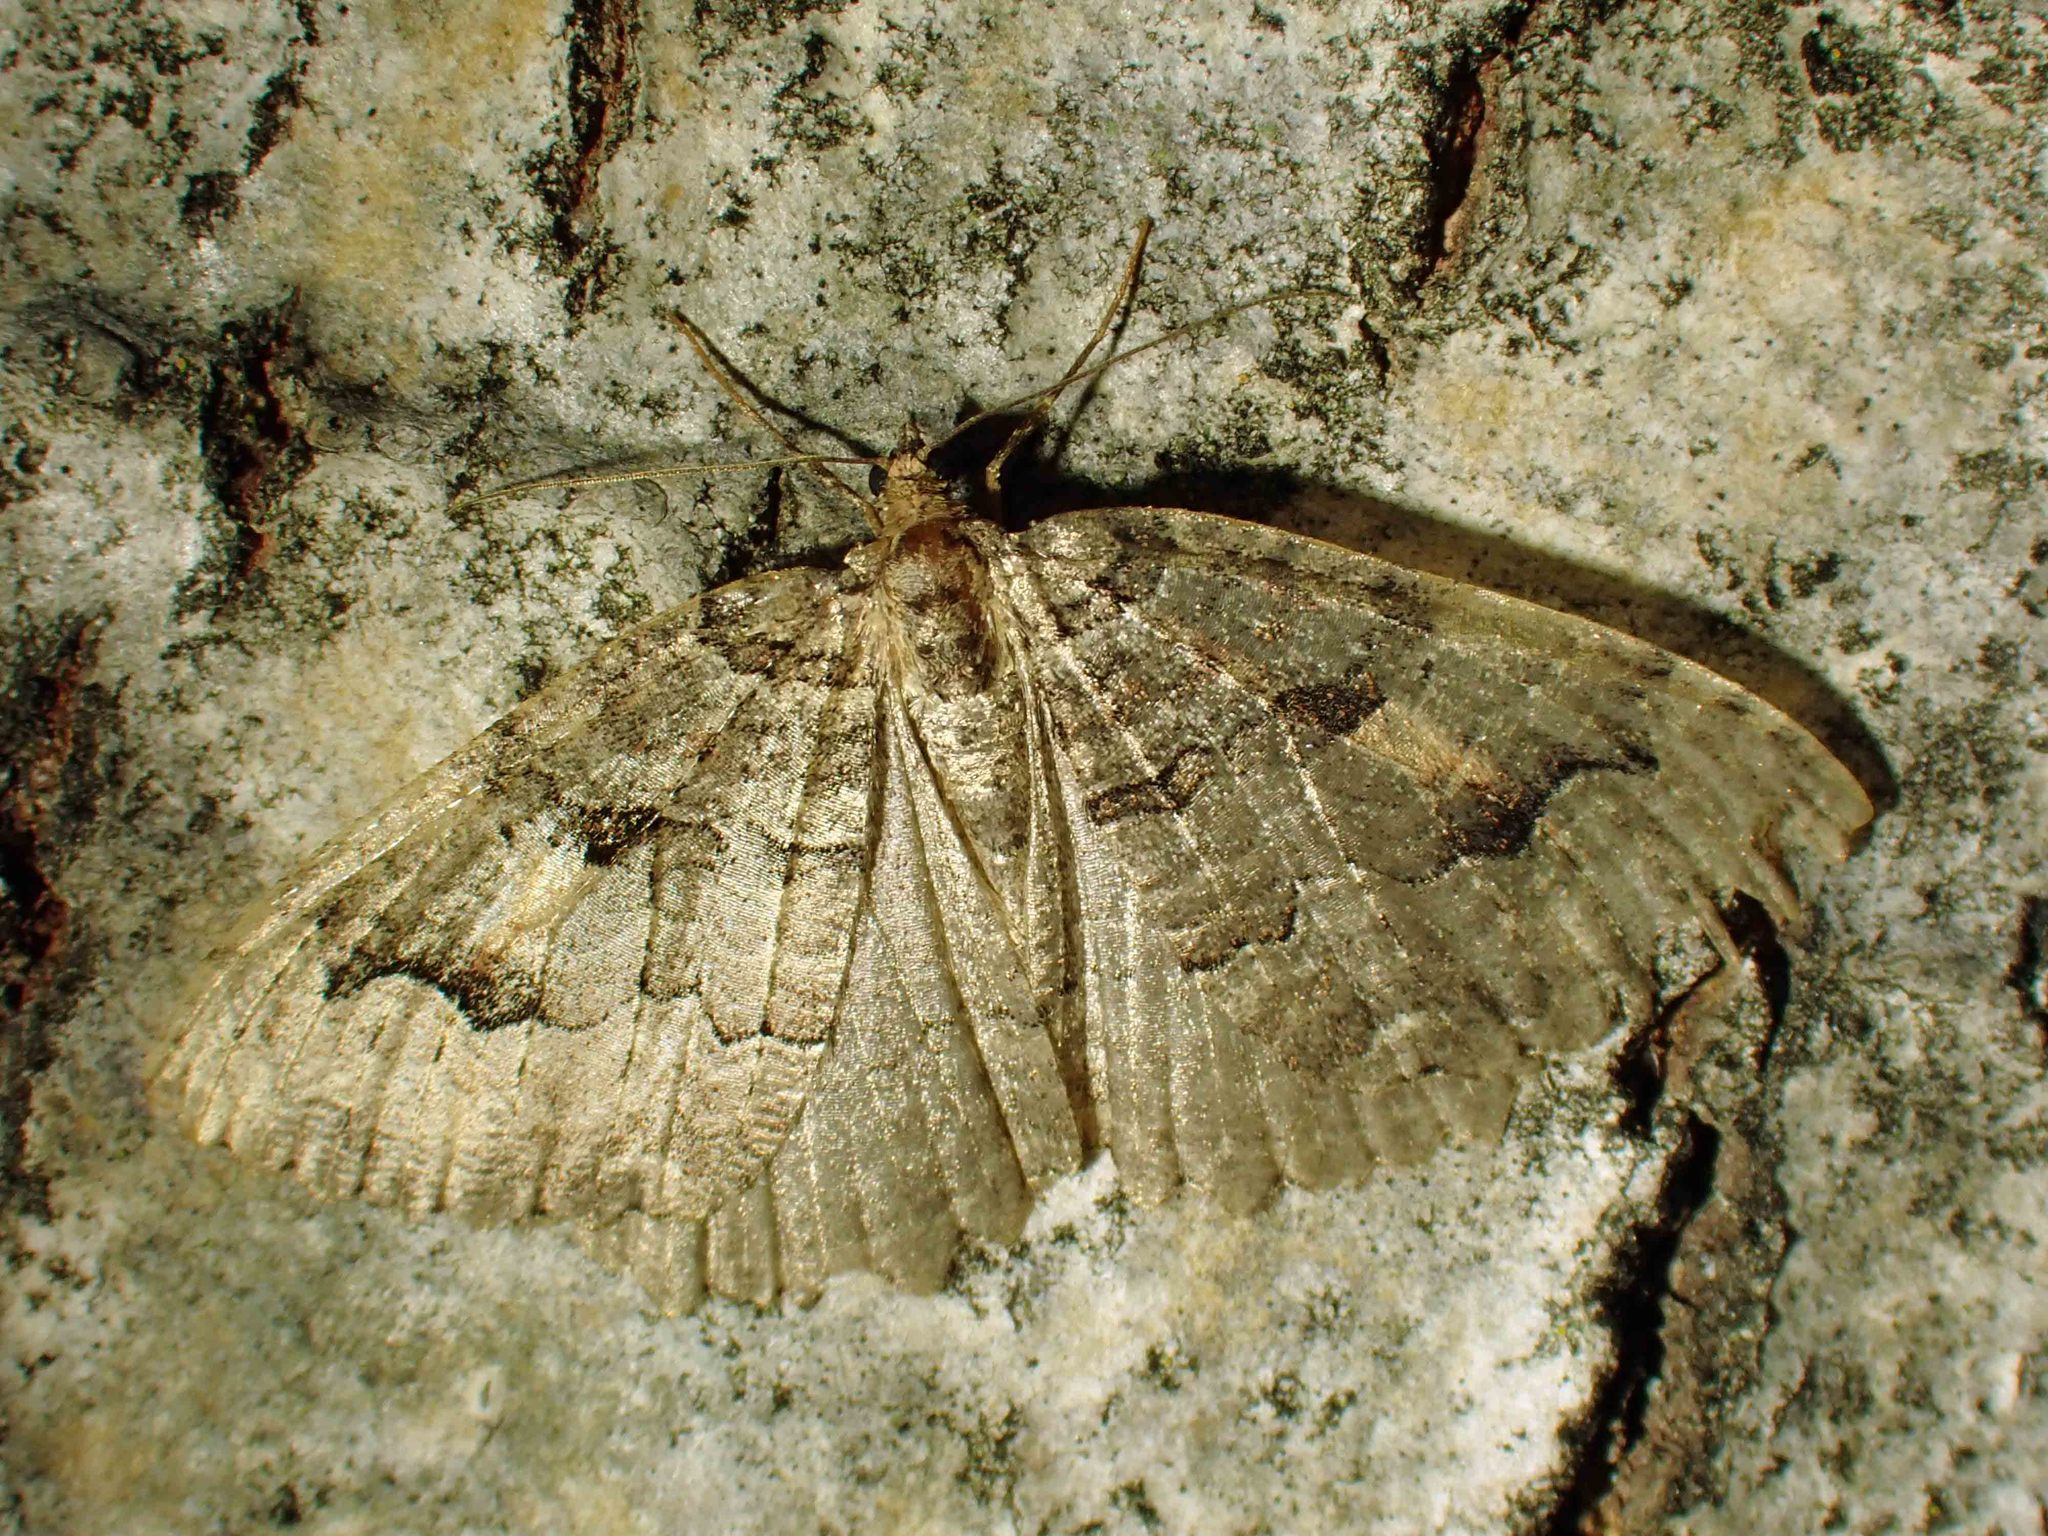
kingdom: Animalia
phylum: Arthropoda
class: Insecta
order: Lepidoptera
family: Geometridae
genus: Triphosa
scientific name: Triphosa haesitata
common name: Tissue moth
